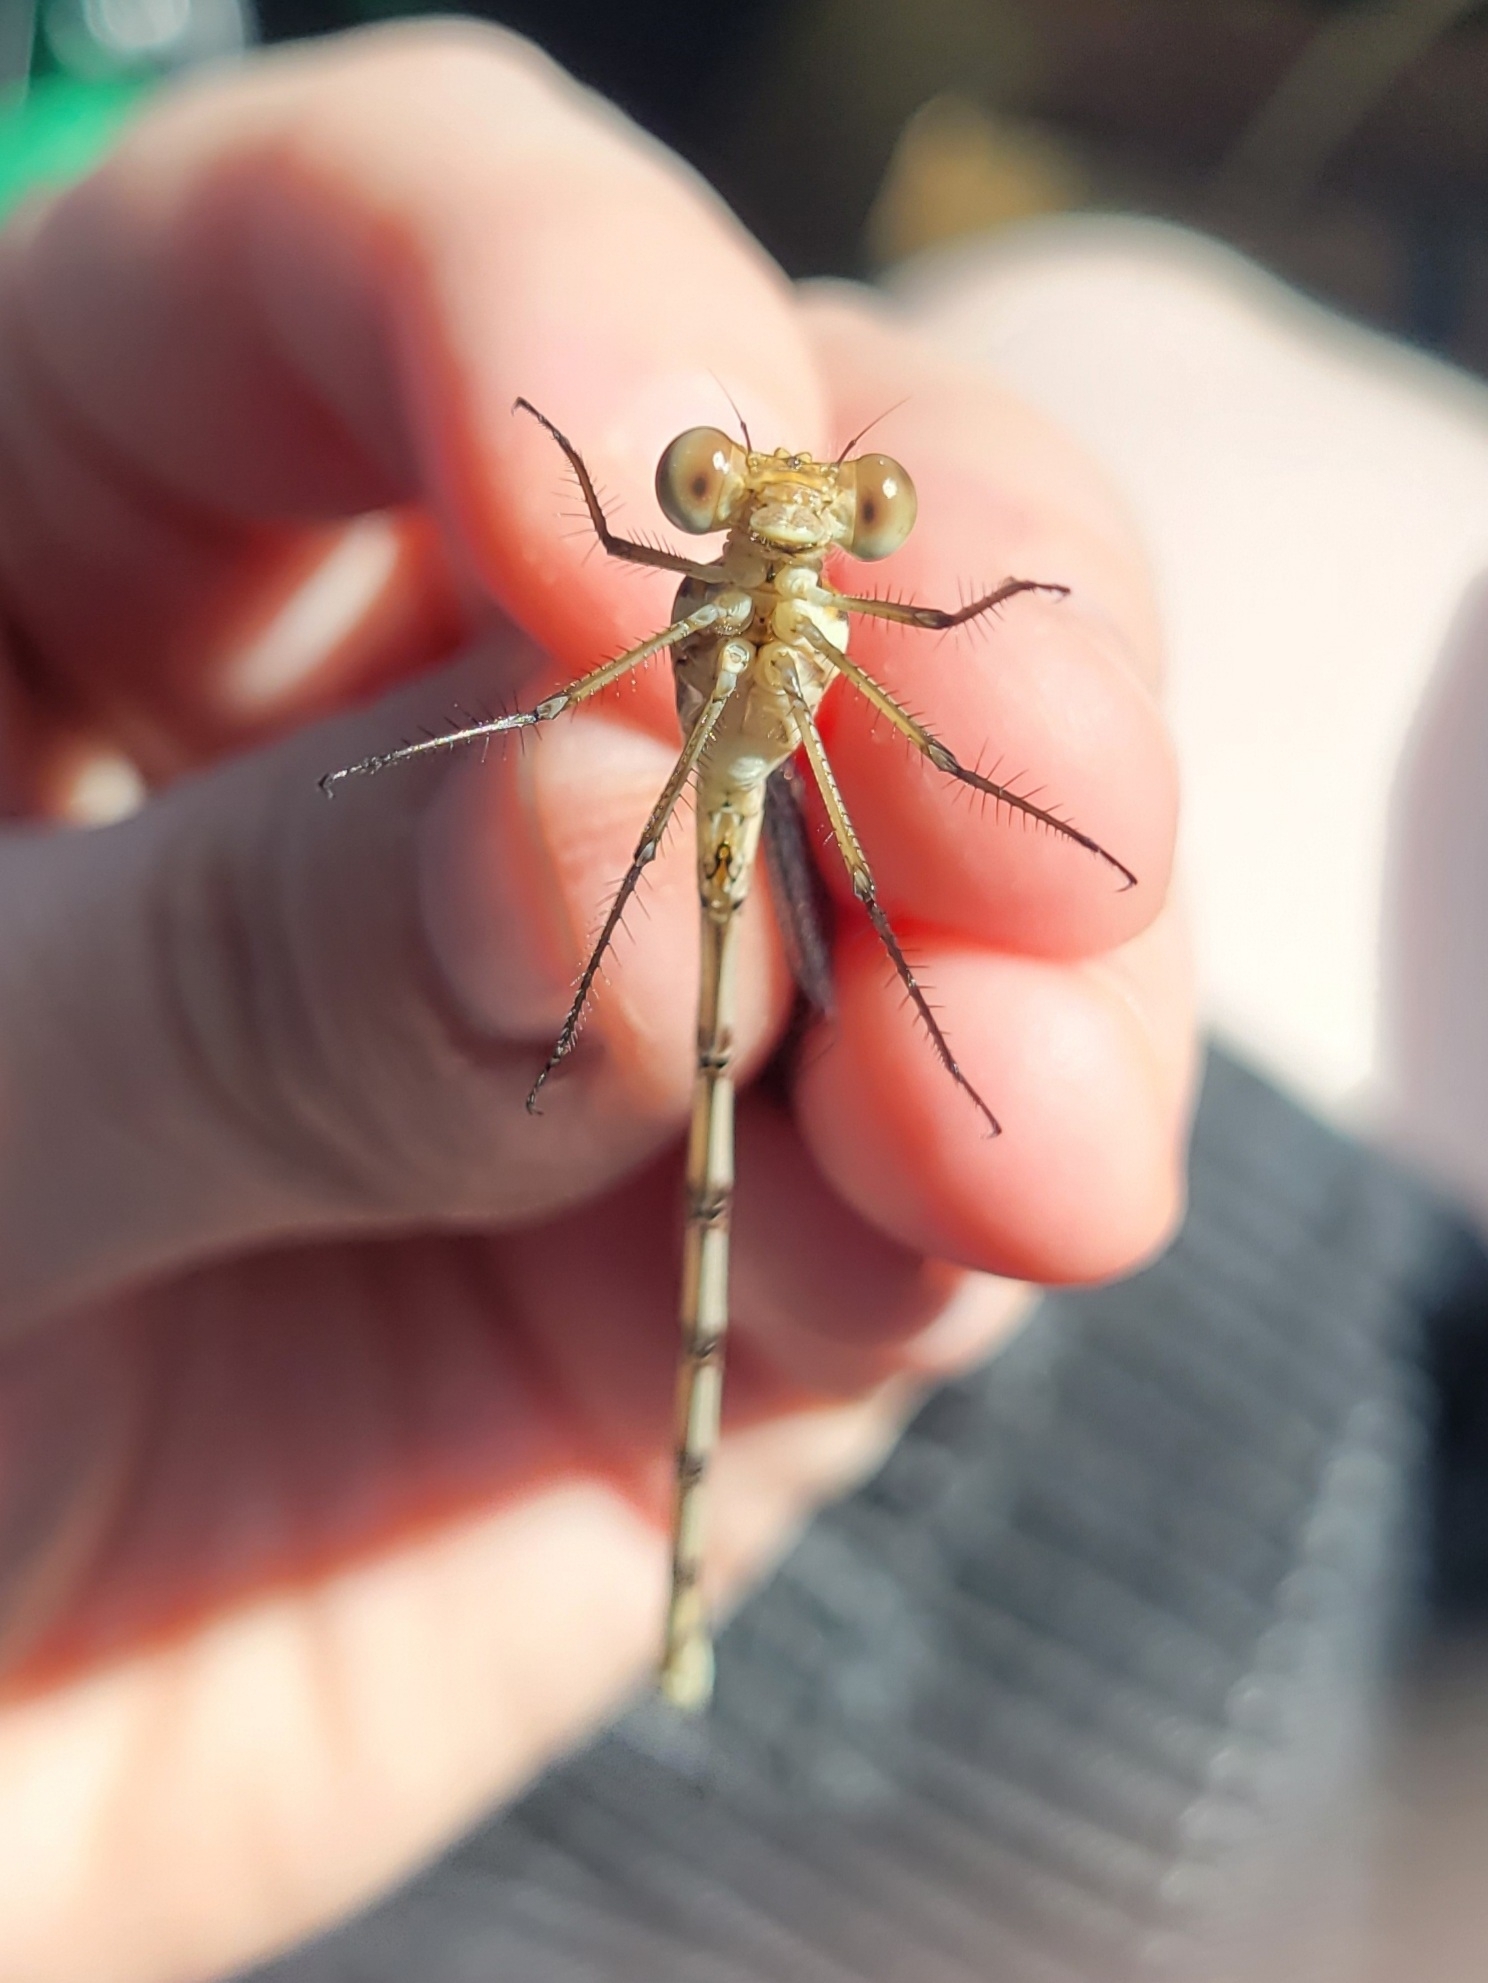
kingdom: Animalia
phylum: Arthropoda
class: Insecta
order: Odonata
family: Lestidae
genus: Archilestes
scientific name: Archilestes grandis
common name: Great spreadwing
